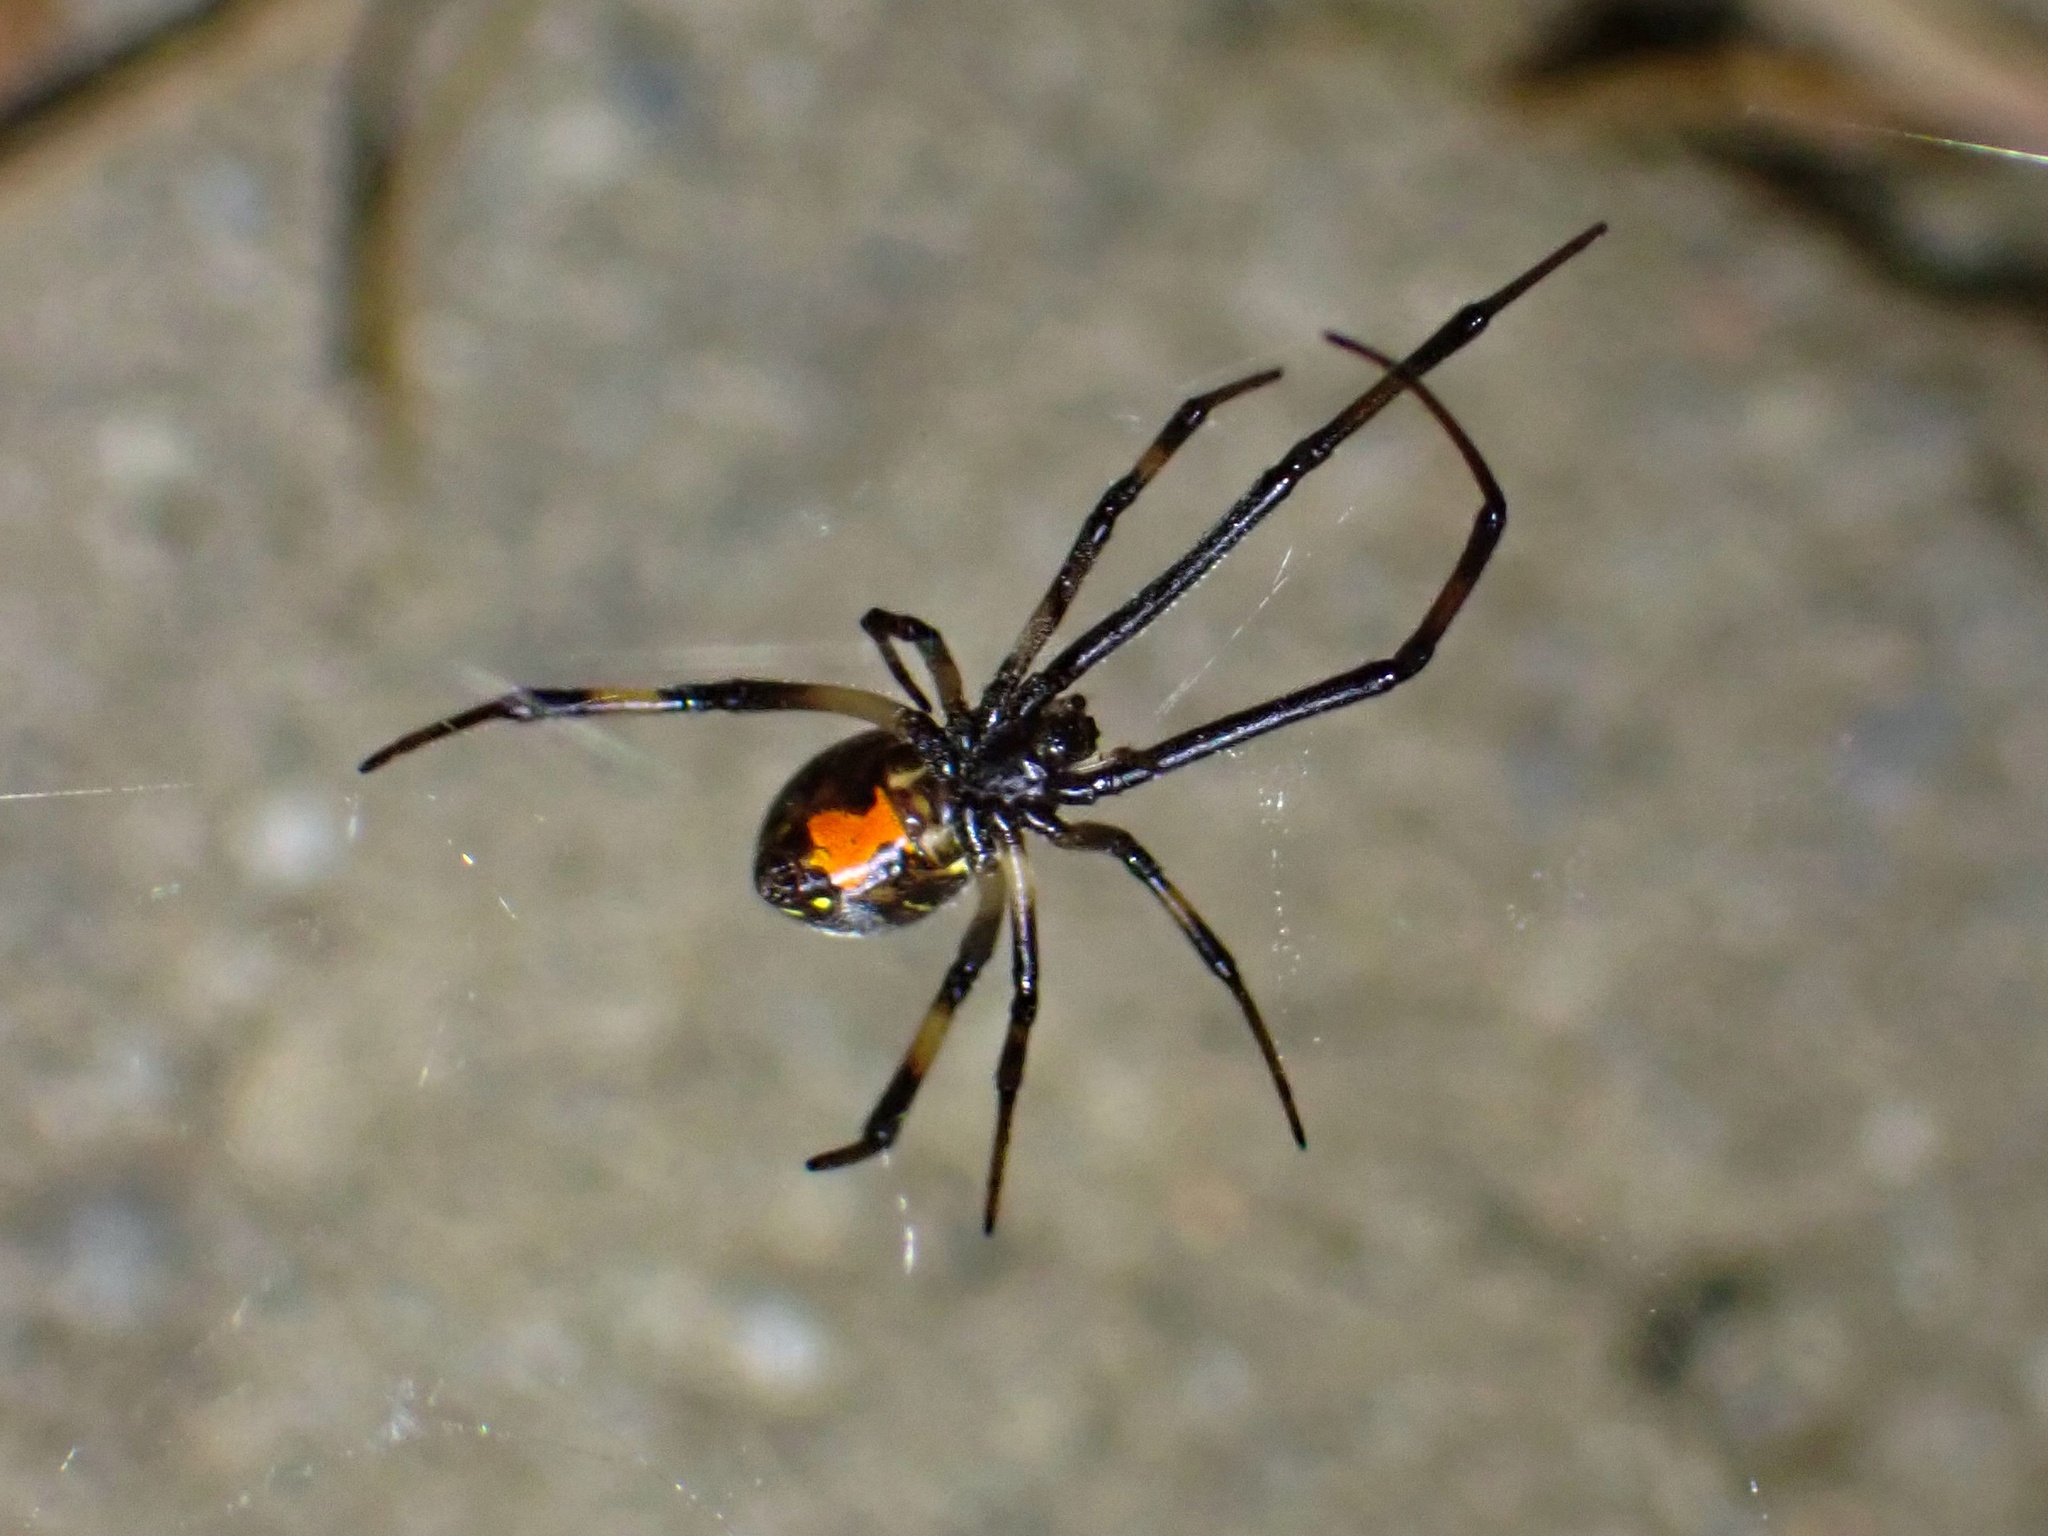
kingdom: Animalia
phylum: Arthropoda
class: Arachnida
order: Araneae
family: Theridiidae
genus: Latrodectus
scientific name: Latrodectus geometricus
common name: Brown widow spider
